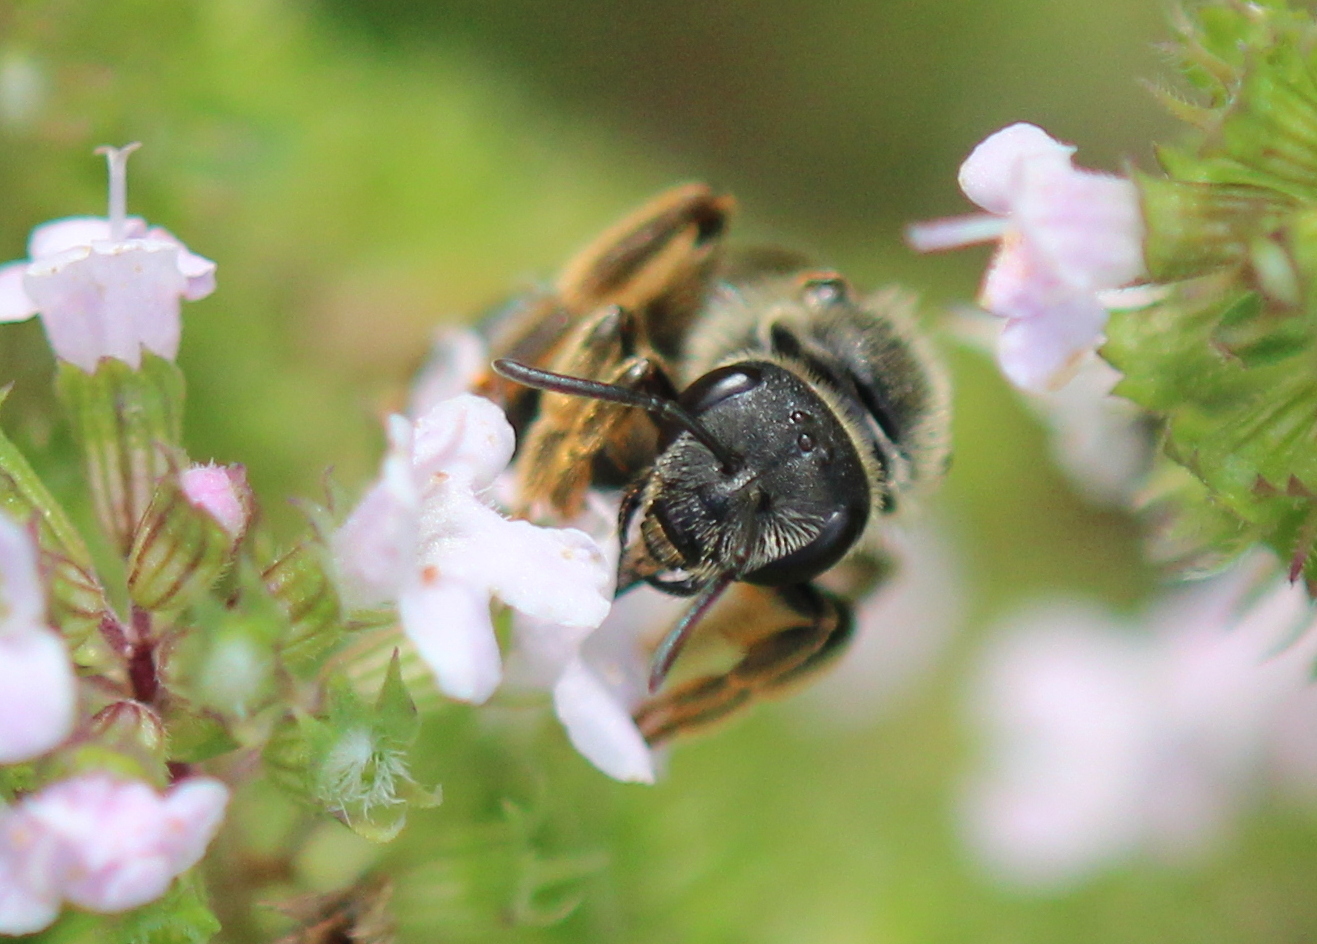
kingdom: Animalia
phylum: Arthropoda
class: Insecta
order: Hymenoptera
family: Halictidae
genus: Halictus
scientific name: Halictus rubicundus
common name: Orange-legged furrow bee
